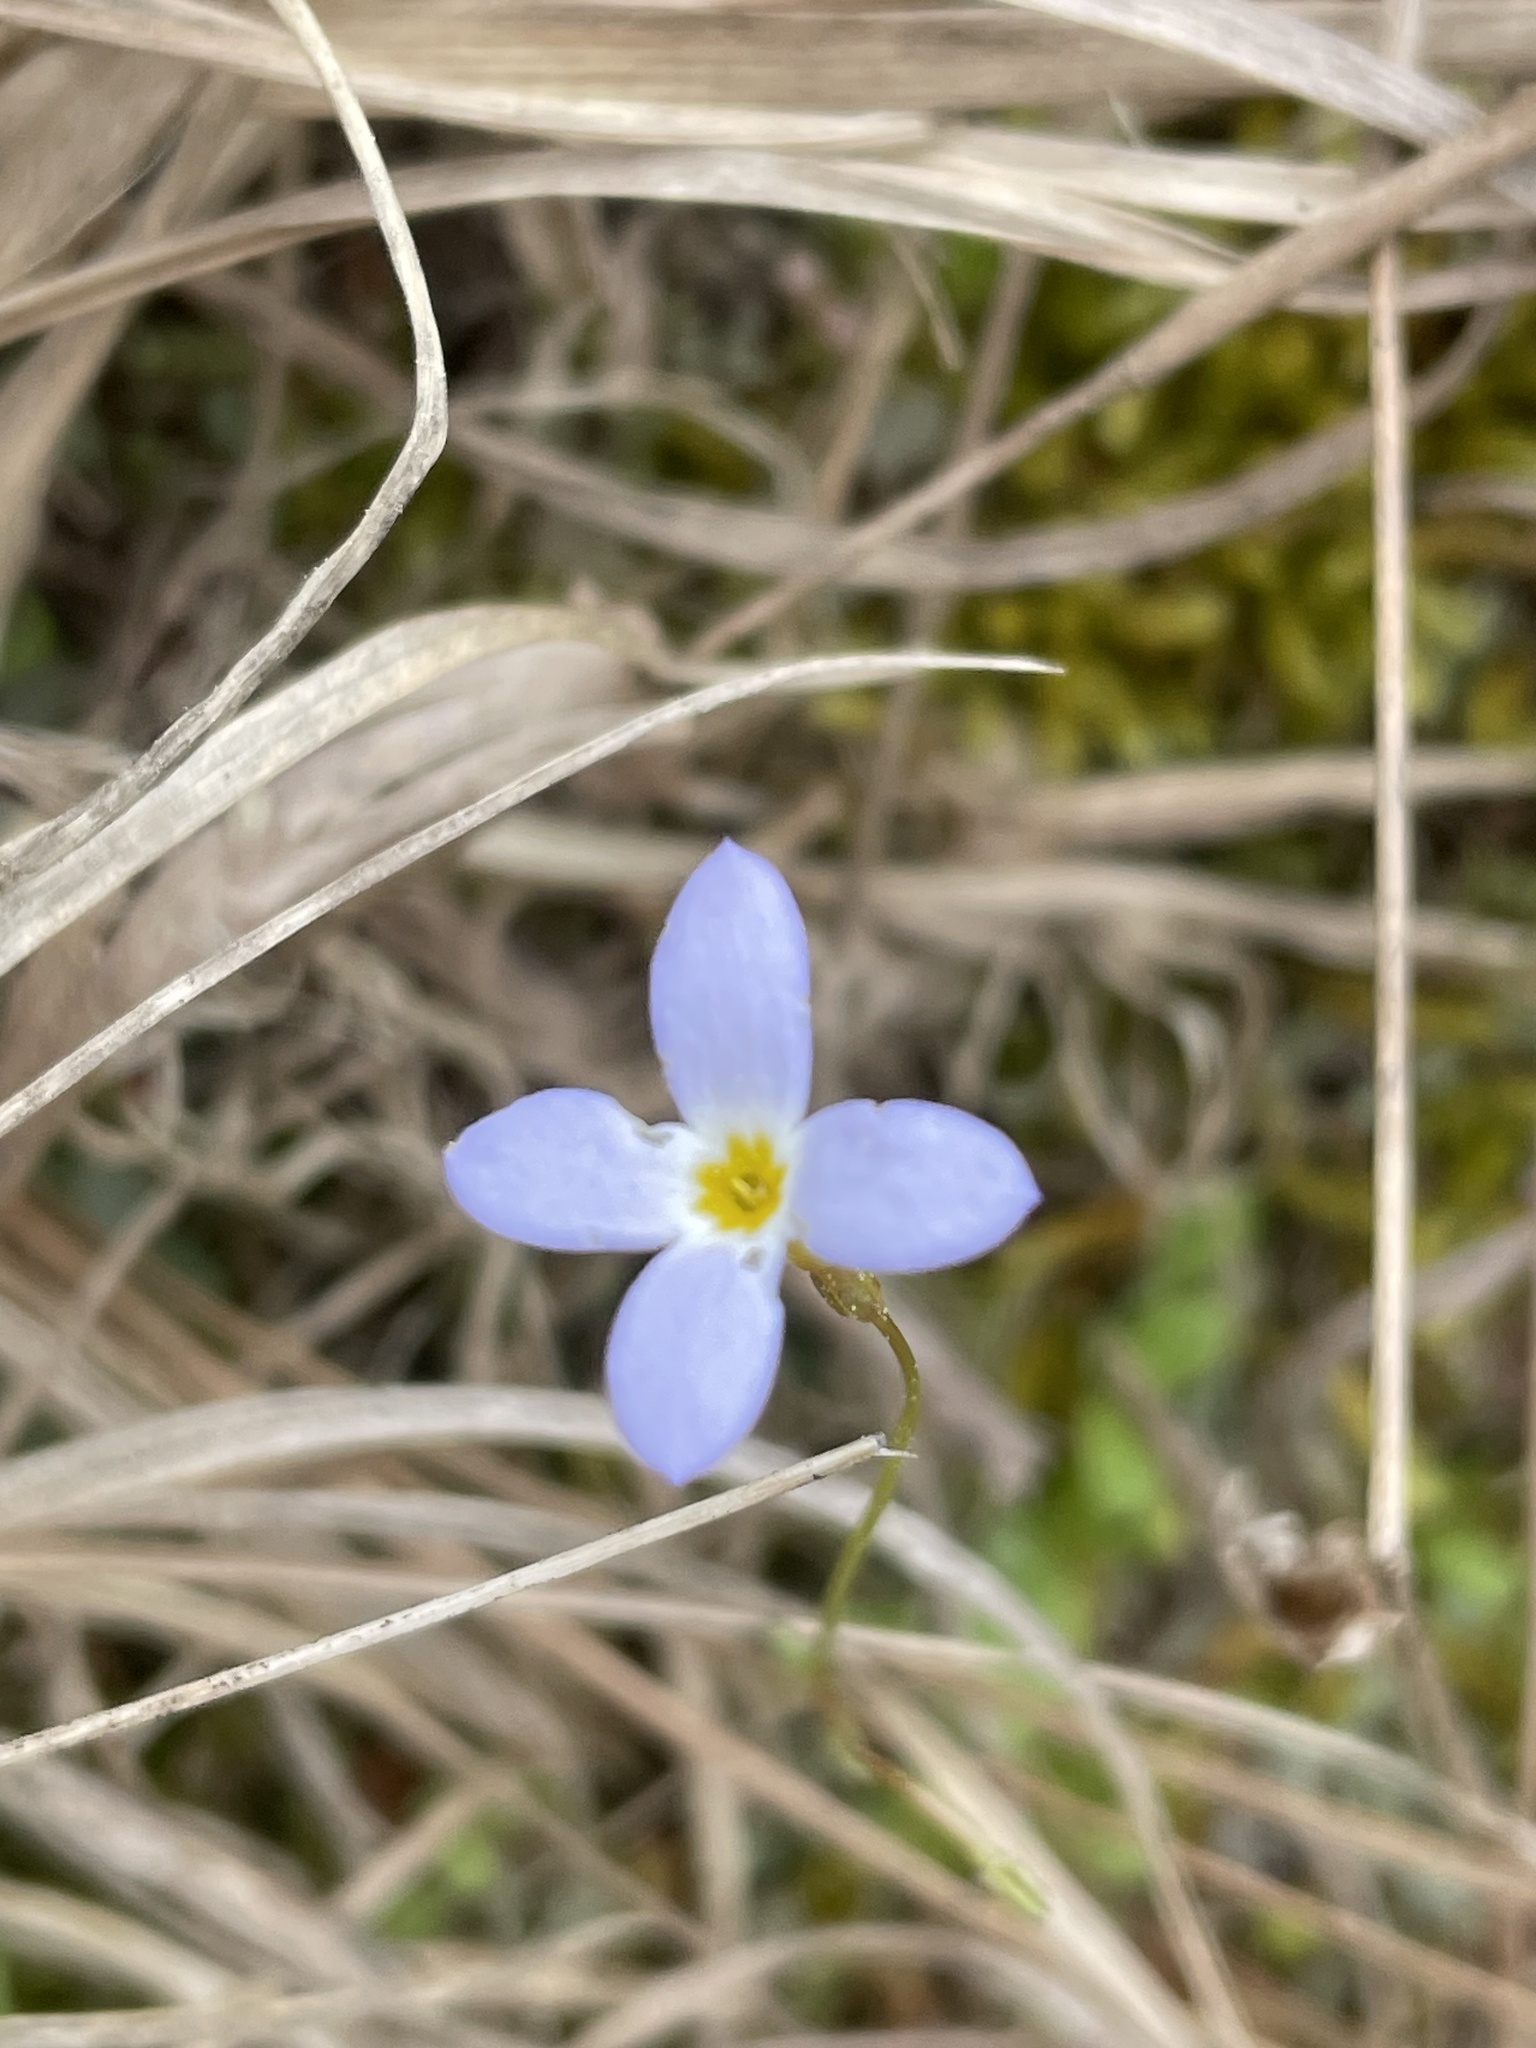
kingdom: Plantae
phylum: Tracheophyta
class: Magnoliopsida
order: Gentianales
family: Rubiaceae
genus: Houstonia
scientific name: Houstonia caerulea
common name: Bluets
